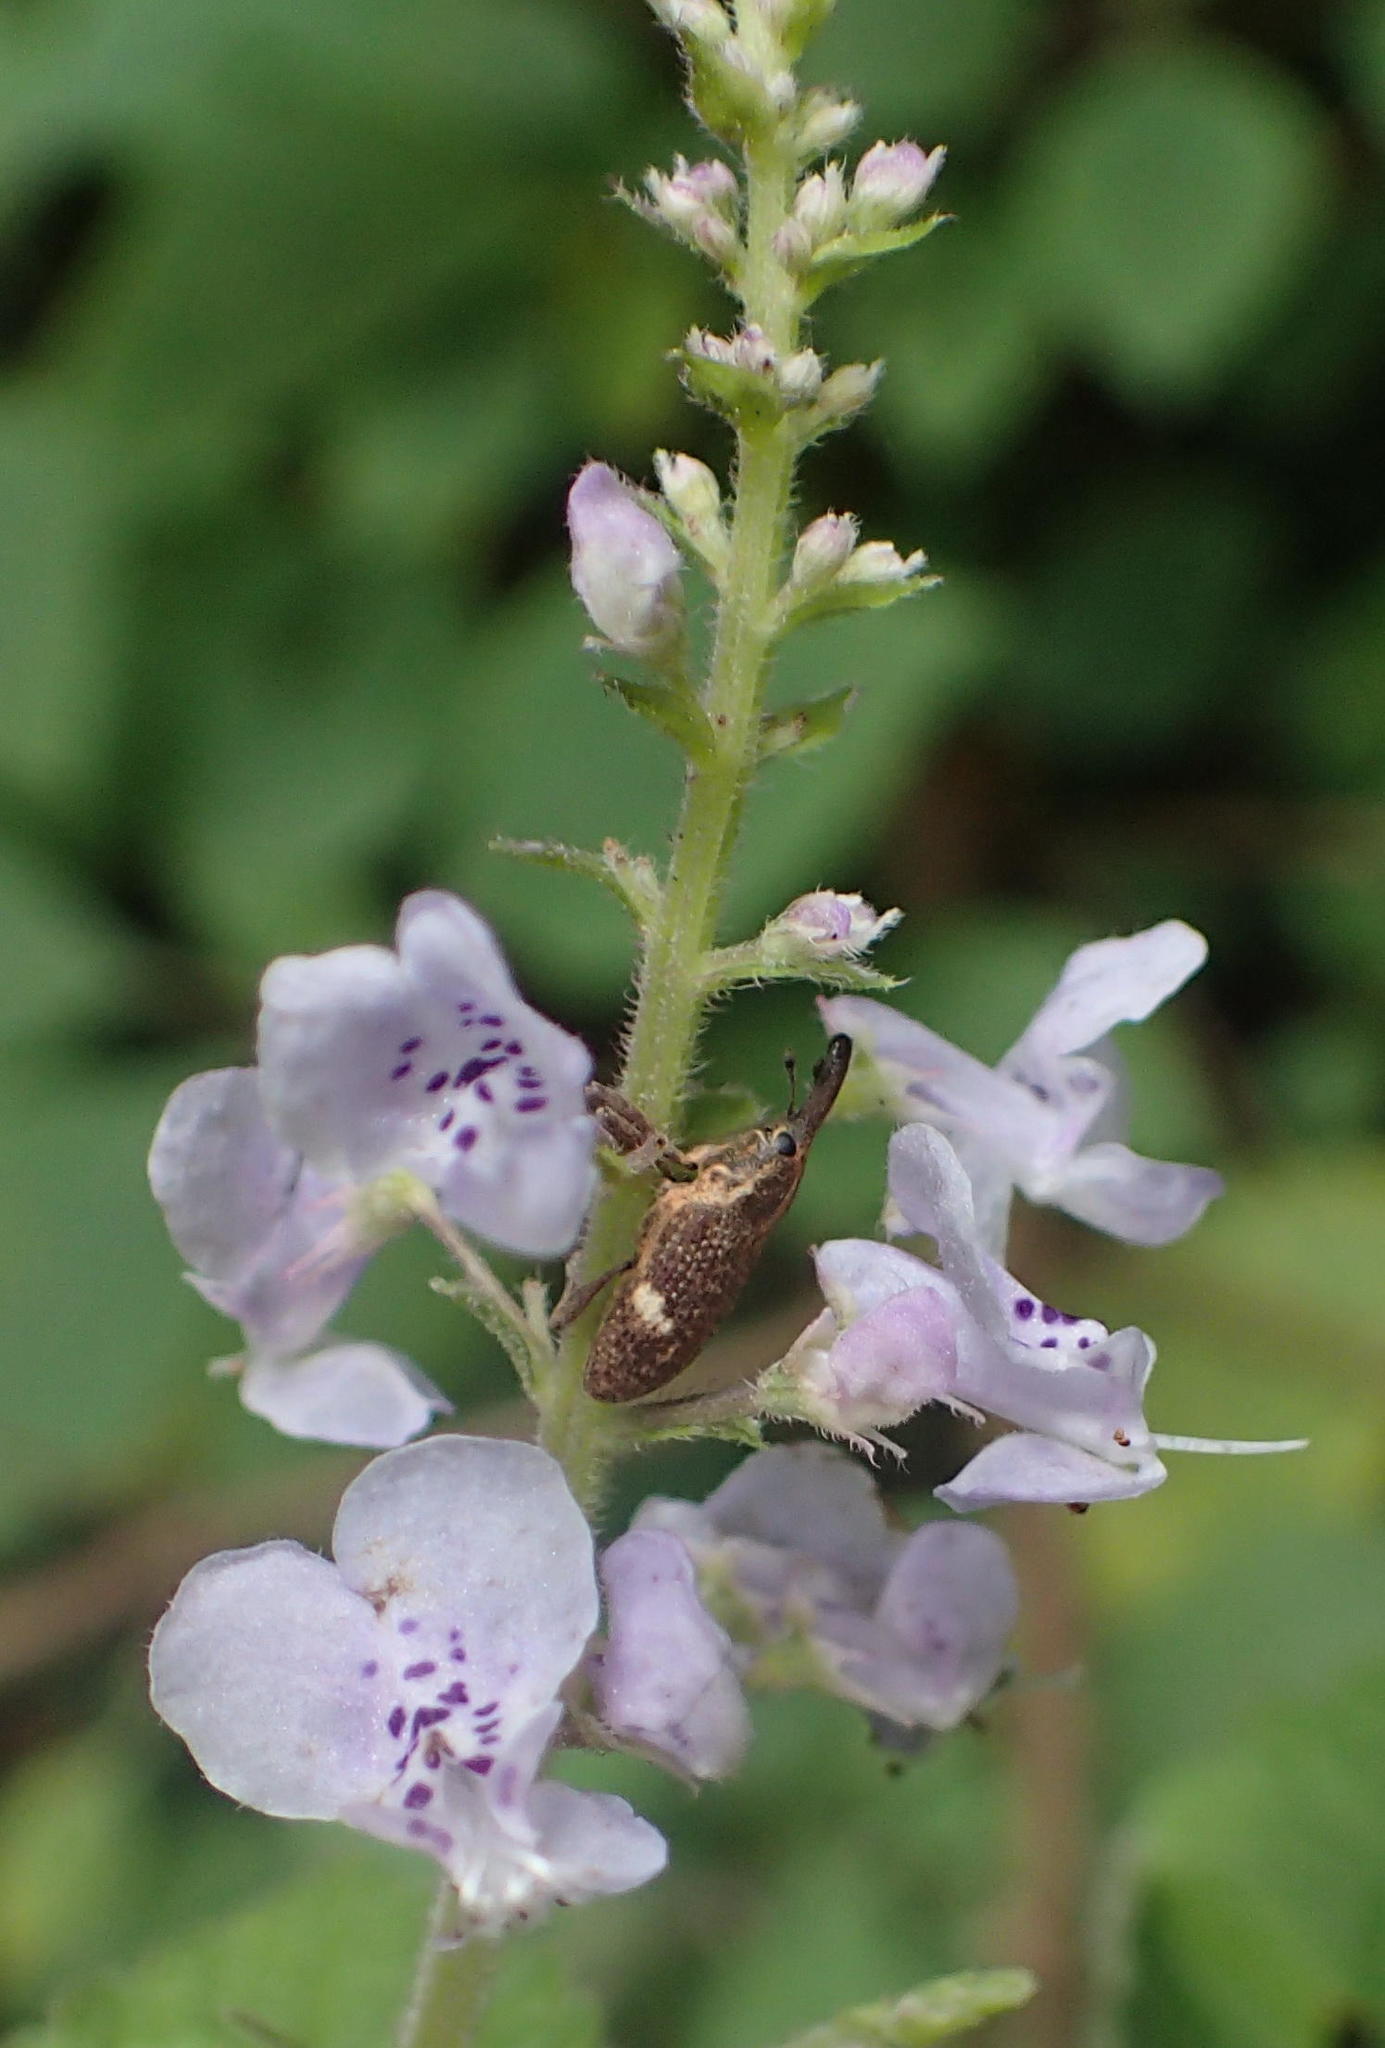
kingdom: Plantae
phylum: Tracheophyta
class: Magnoliopsida
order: Lamiales
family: Lamiaceae
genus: Plectranthus
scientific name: Plectranthus fruticosus
